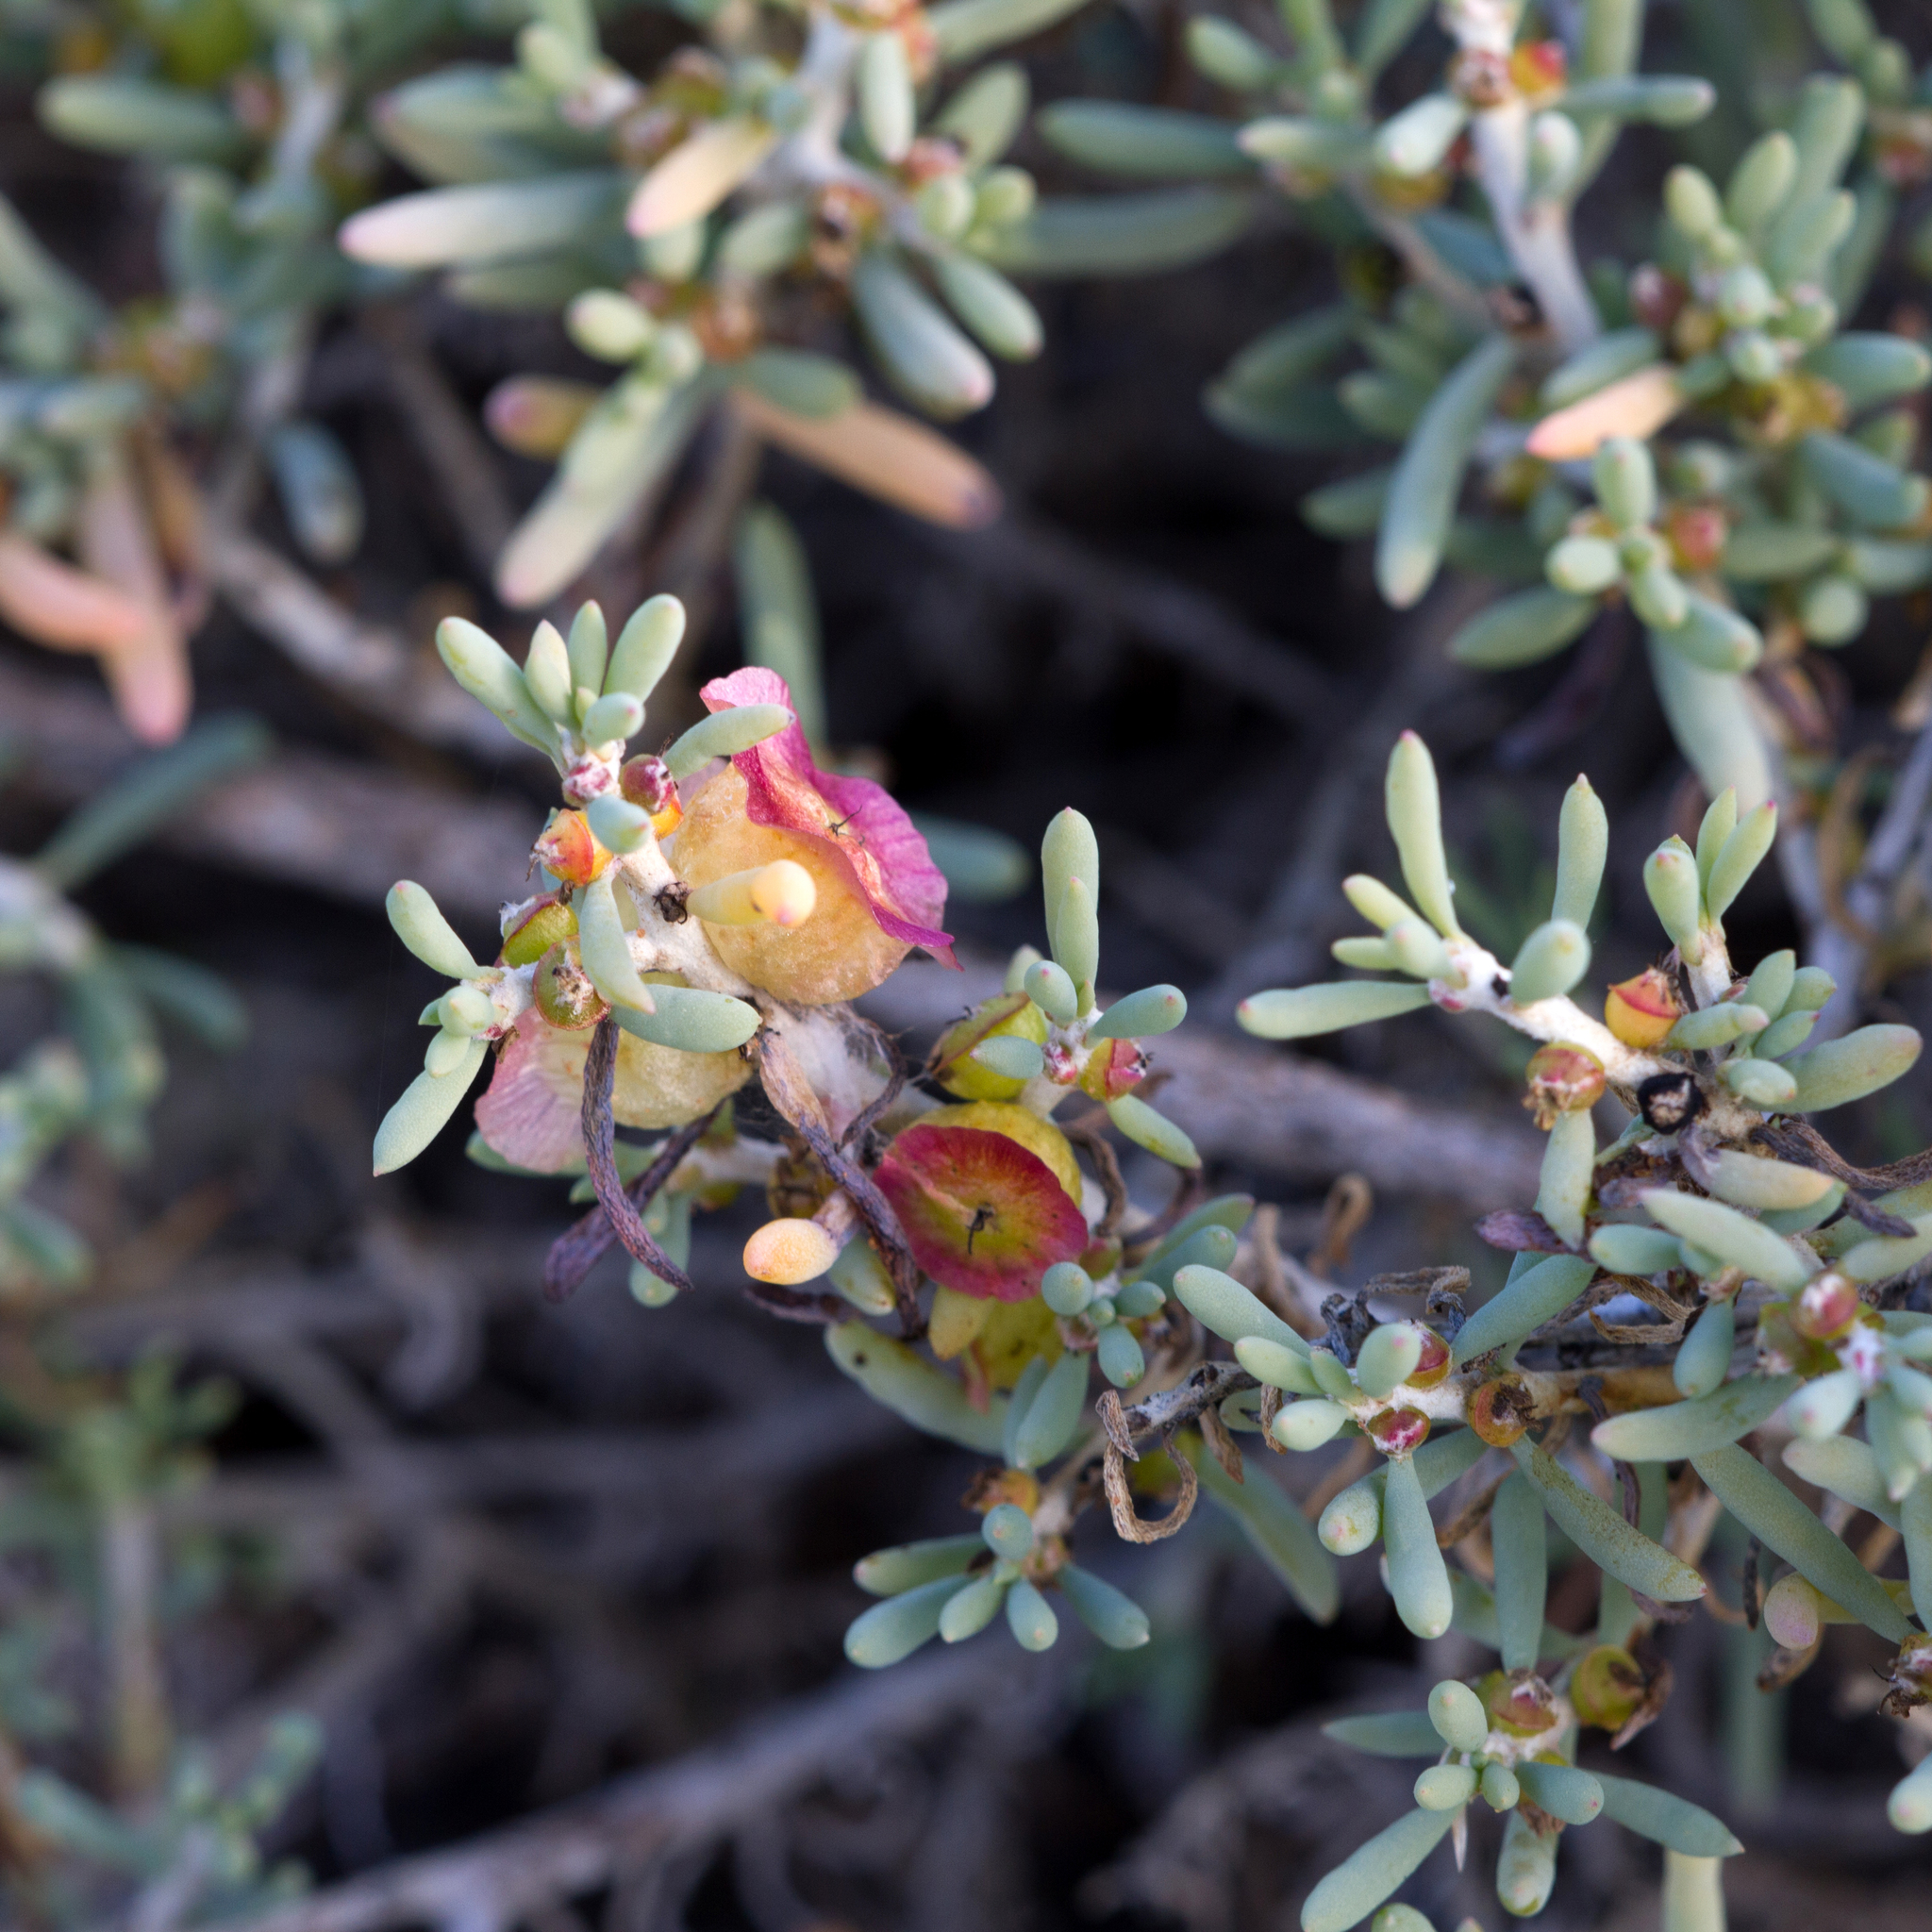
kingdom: Plantae
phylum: Tracheophyta
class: Magnoliopsida
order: Caryophyllales
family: Amaranthaceae
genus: Maireana
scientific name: Maireana spongiocarpa
